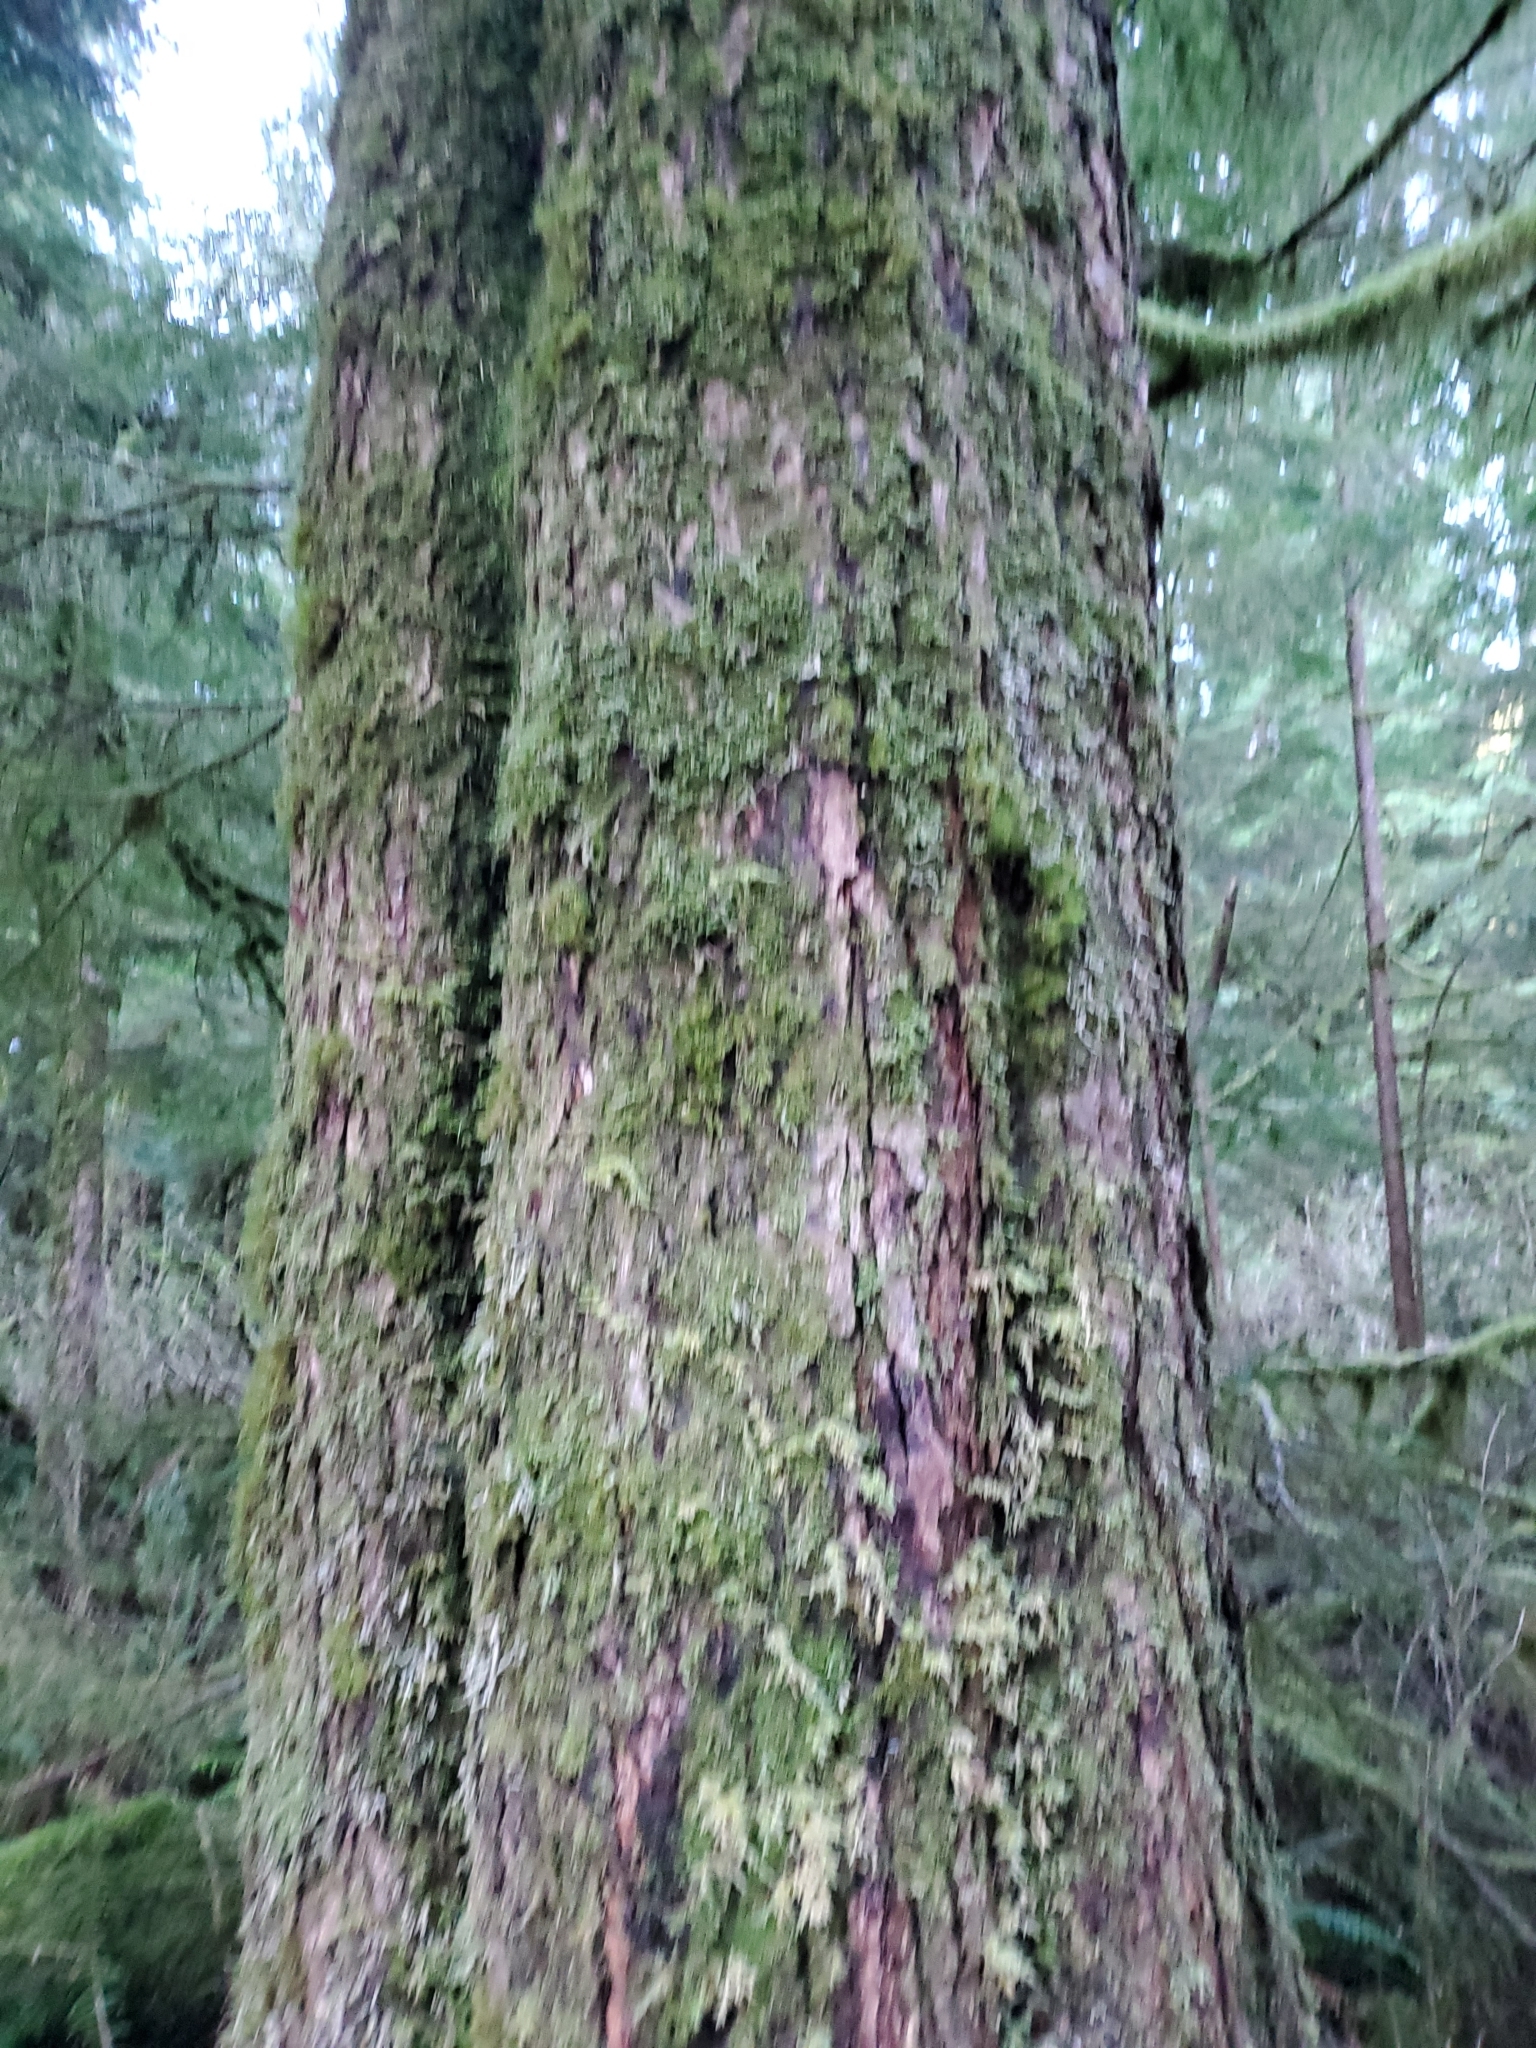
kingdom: Plantae
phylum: Tracheophyta
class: Pinopsida
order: Pinales
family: Pinaceae
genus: Tsuga
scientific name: Tsuga heterophylla
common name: Western hemlock
